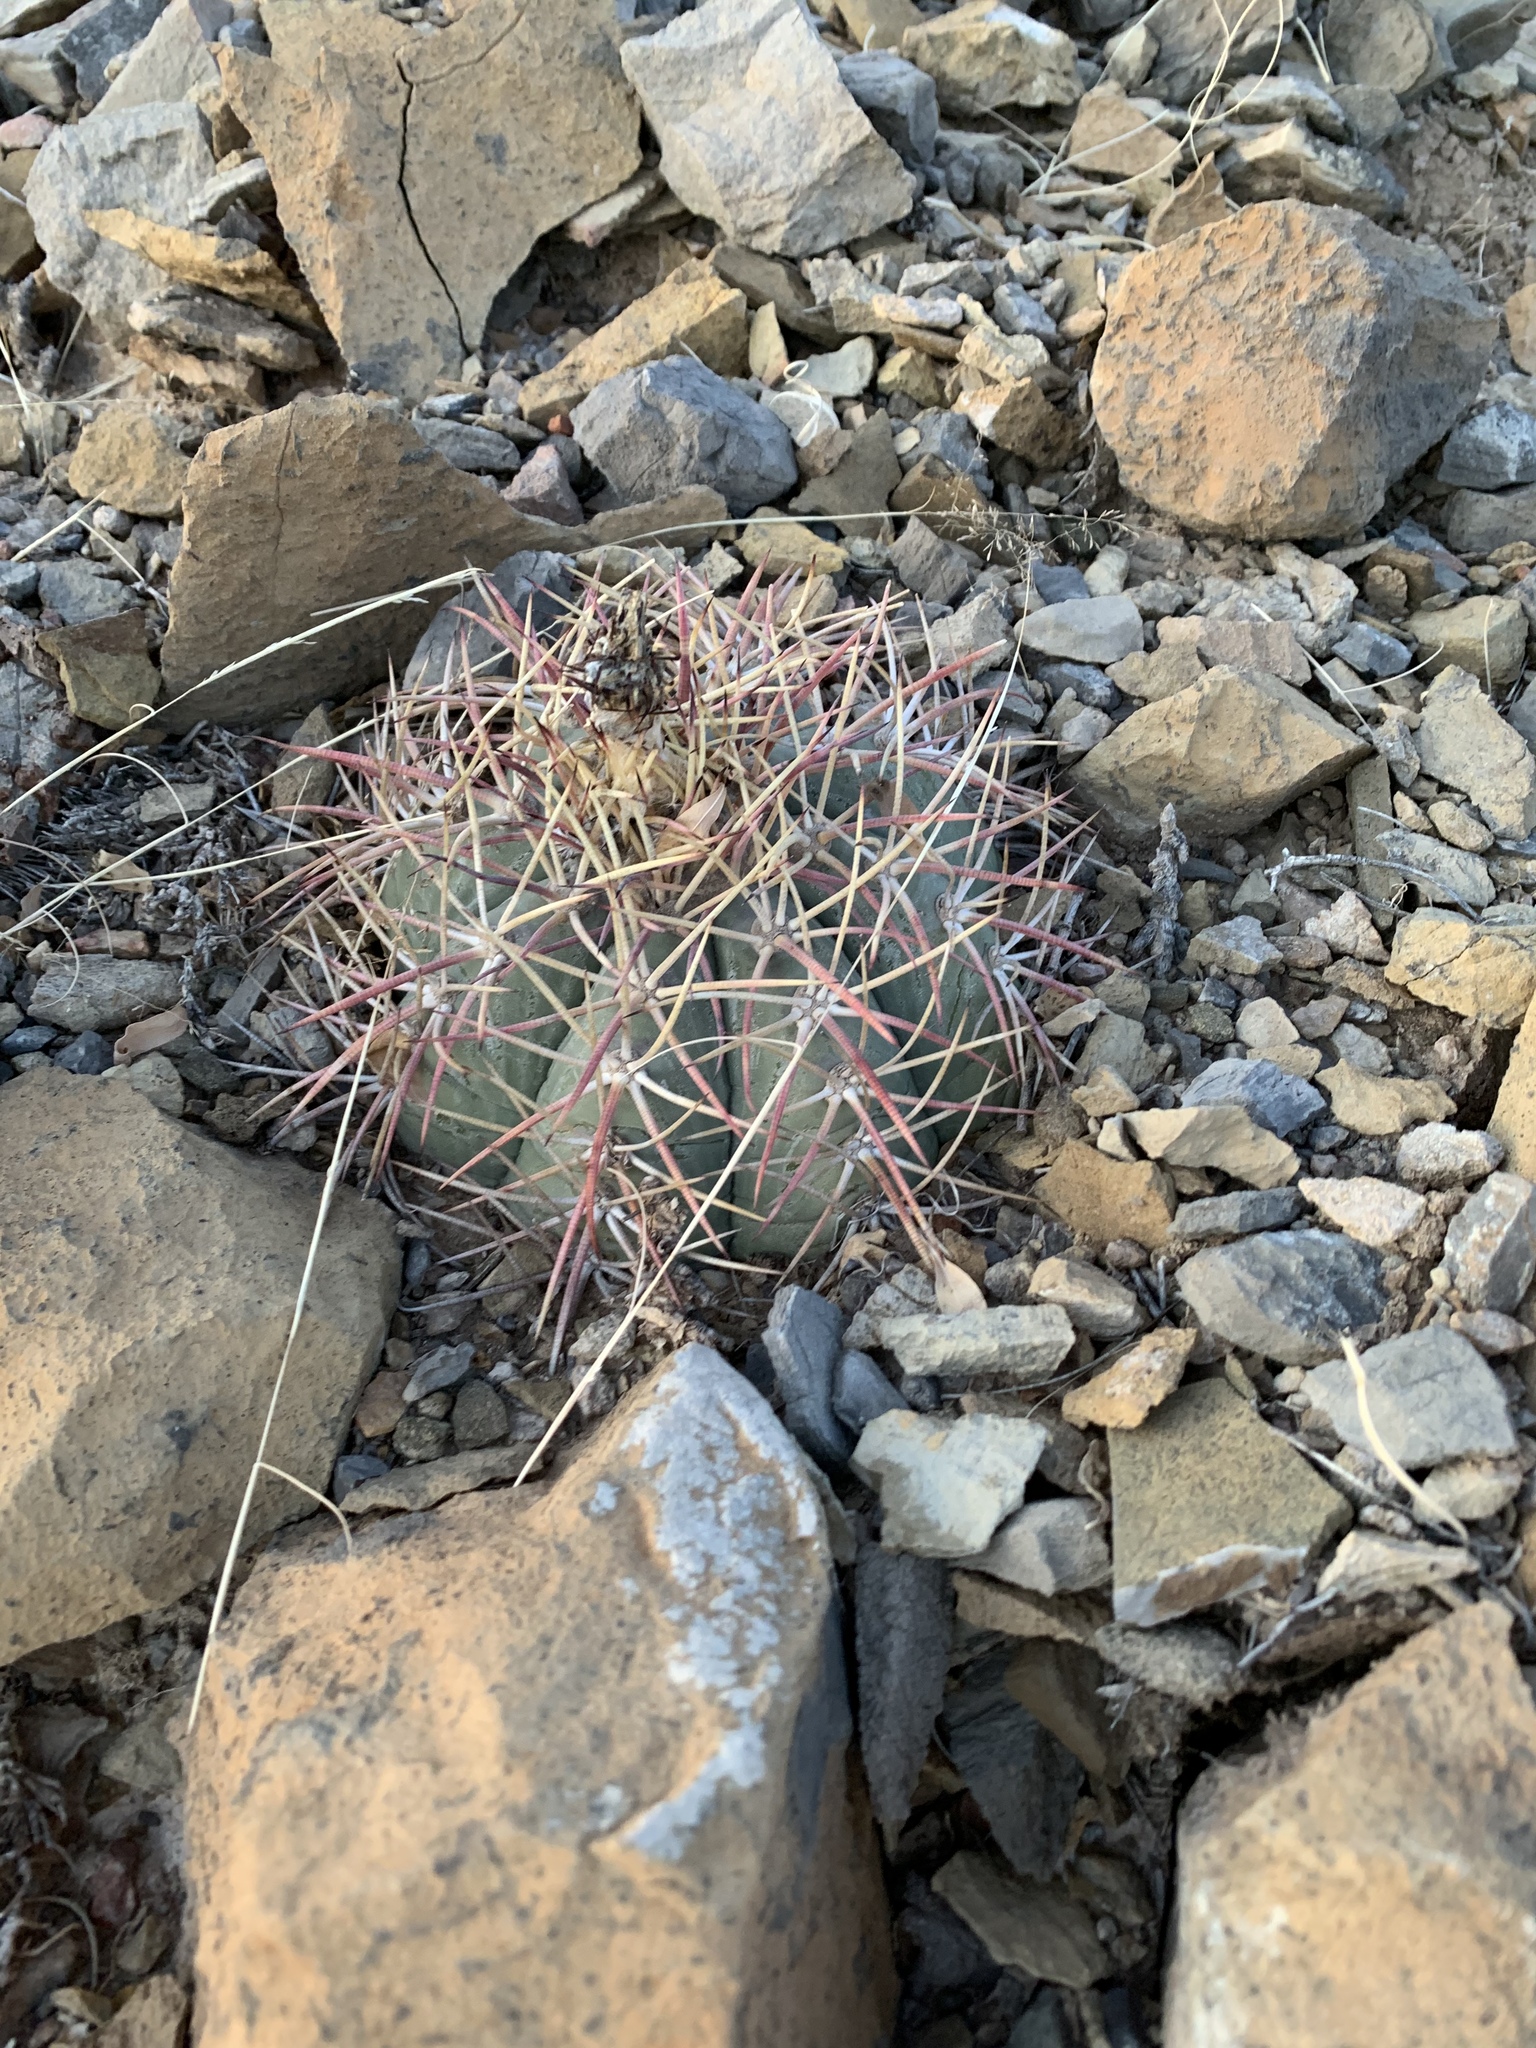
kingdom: Plantae
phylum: Tracheophyta
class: Magnoliopsida
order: Caryophyllales
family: Cactaceae
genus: Echinocactus
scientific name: Echinocactus horizonthalonius
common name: Devilshead
